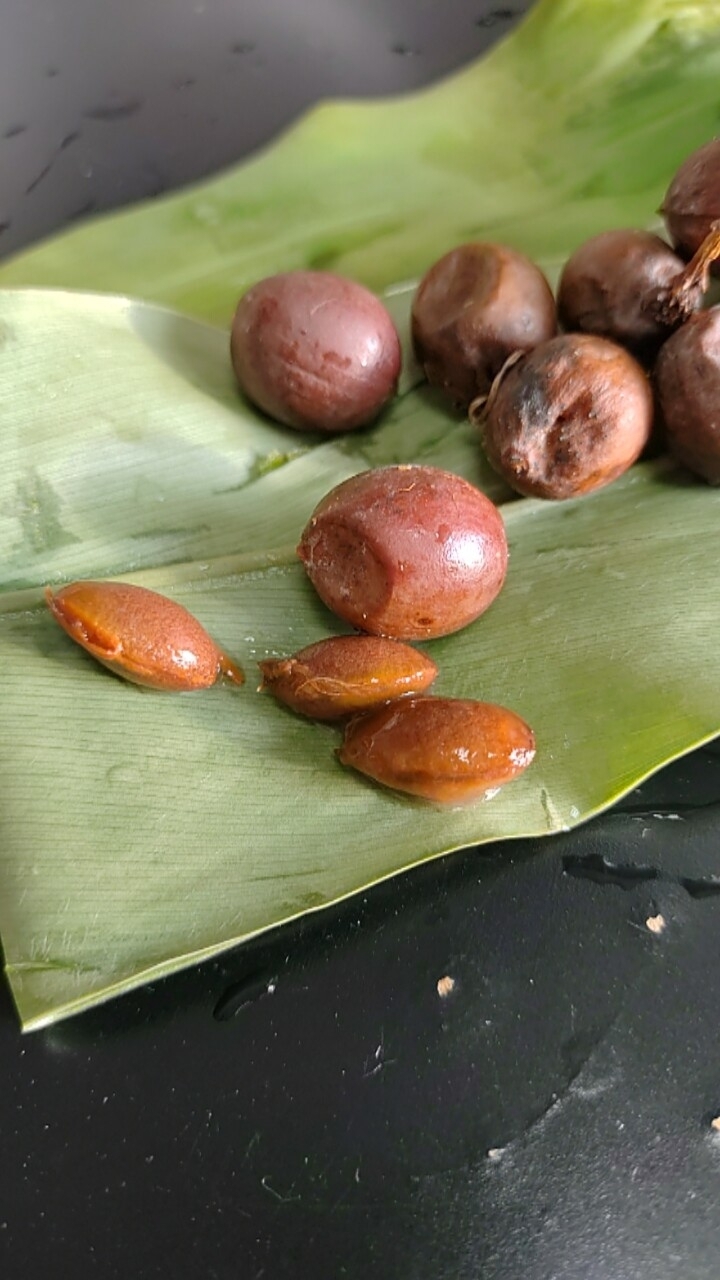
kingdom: Plantae
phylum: Tracheophyta
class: Pinopsida
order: Pinales
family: Cephalotaxaceae
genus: Cephalotaxus
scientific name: Cephalotaxus harringtonii
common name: Harrington's plum yew
